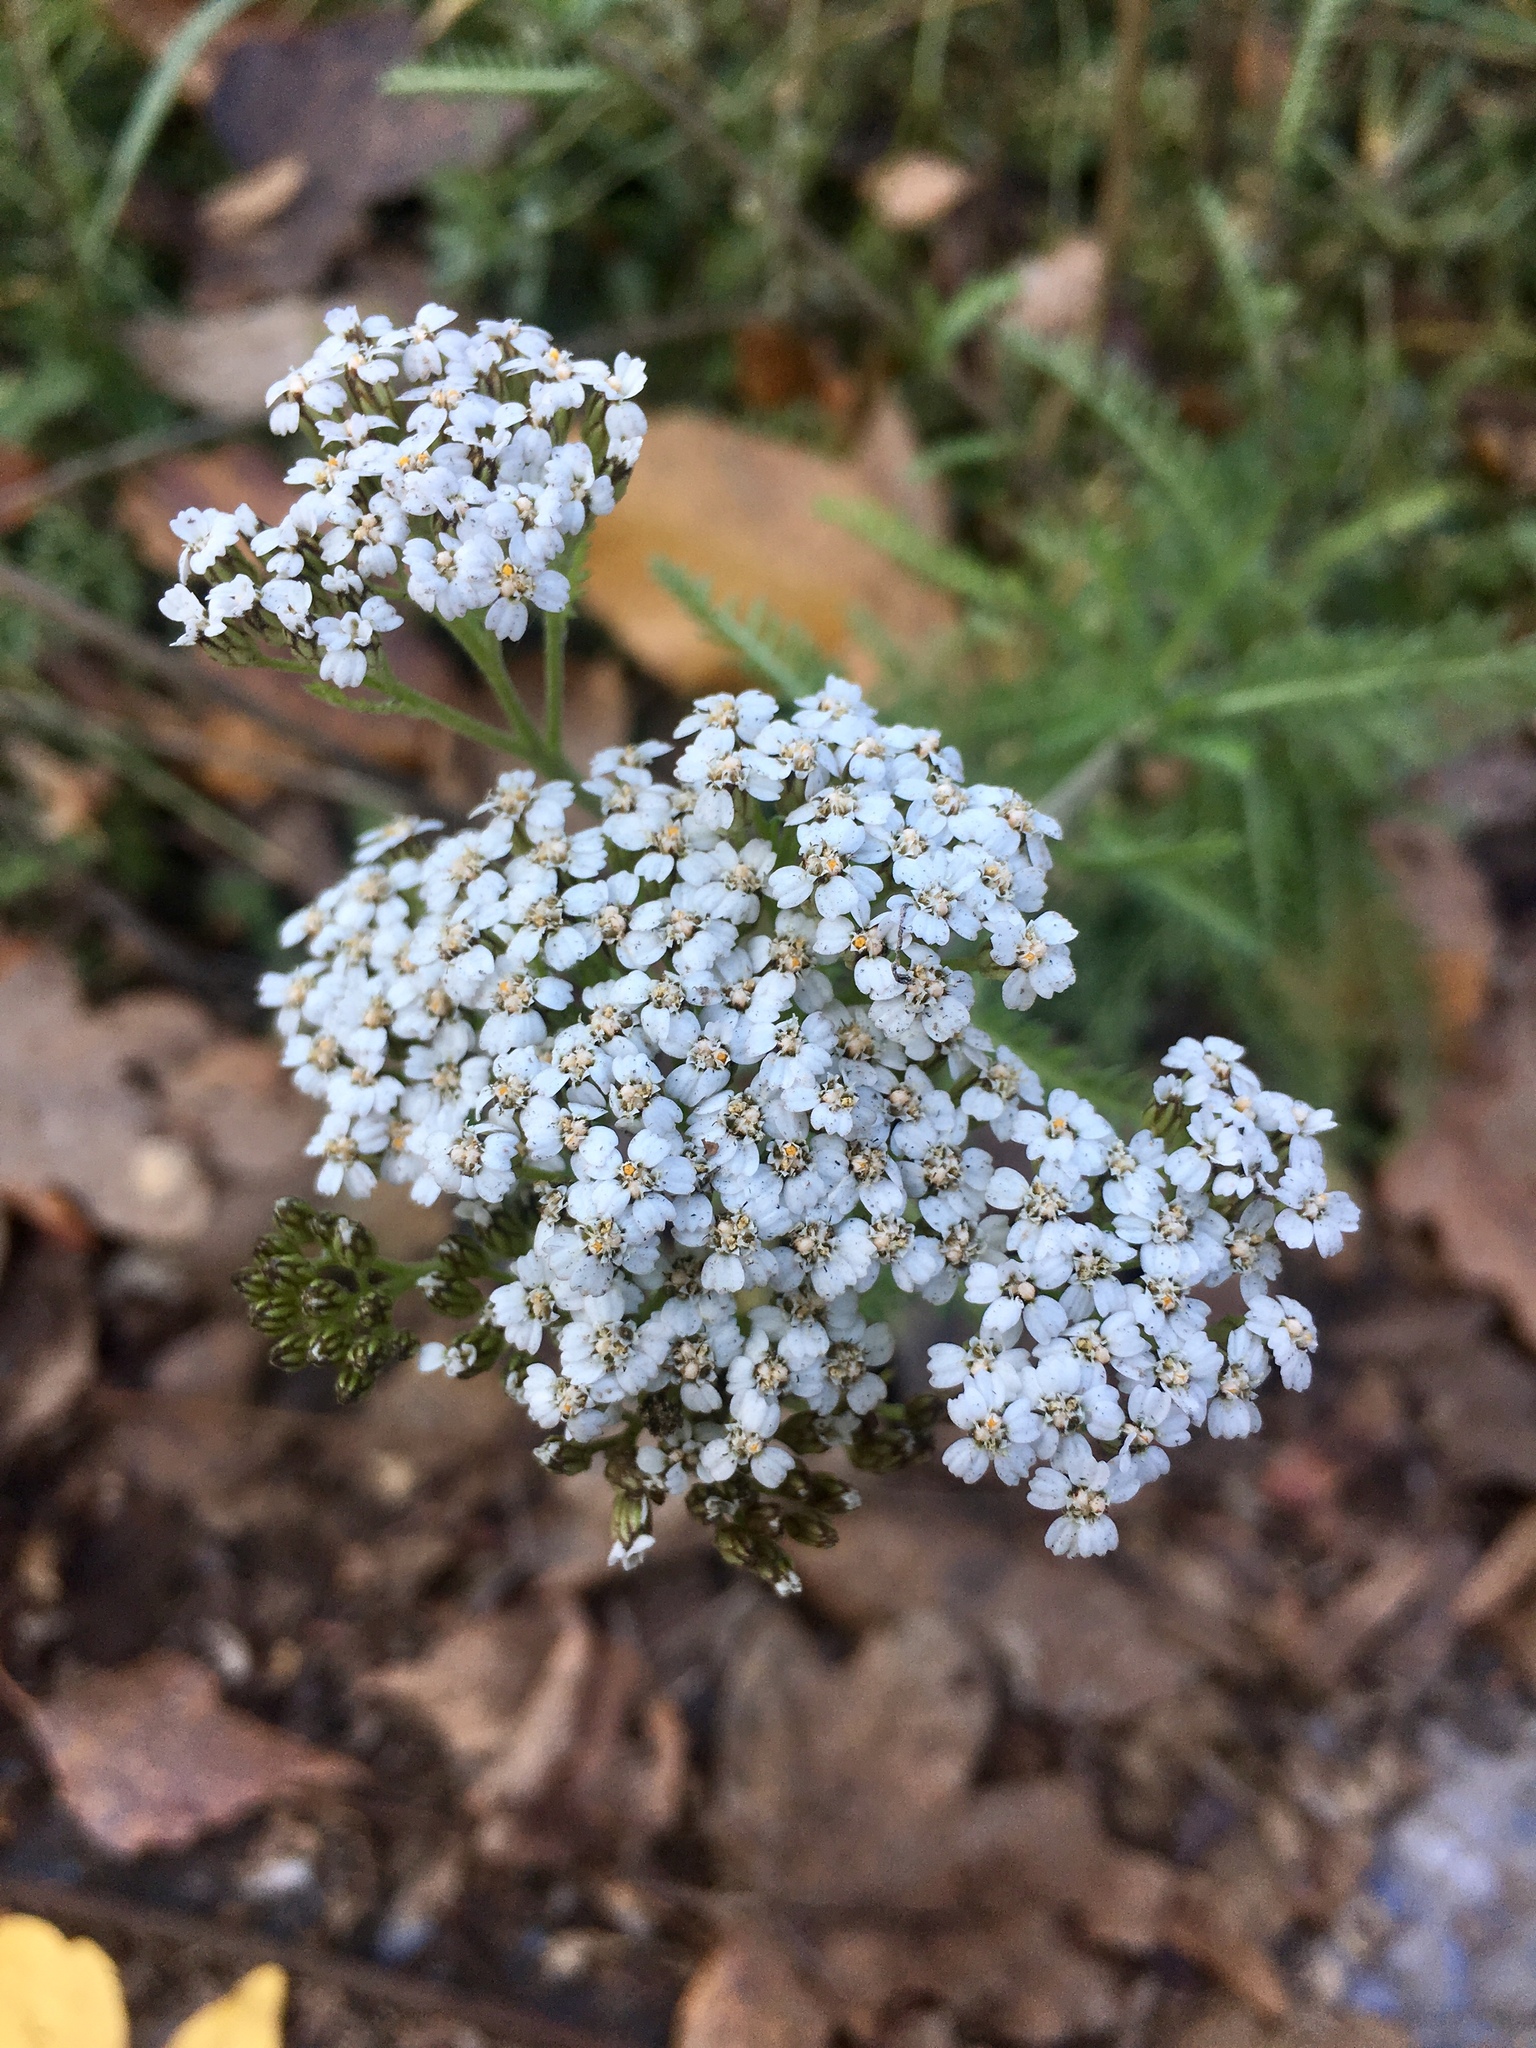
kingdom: Plantae
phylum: Tracheophyta
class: Magnoliopsida
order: Asterales
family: Asteraceae
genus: Achillea
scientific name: Achillea millefolium
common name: Yarrow
